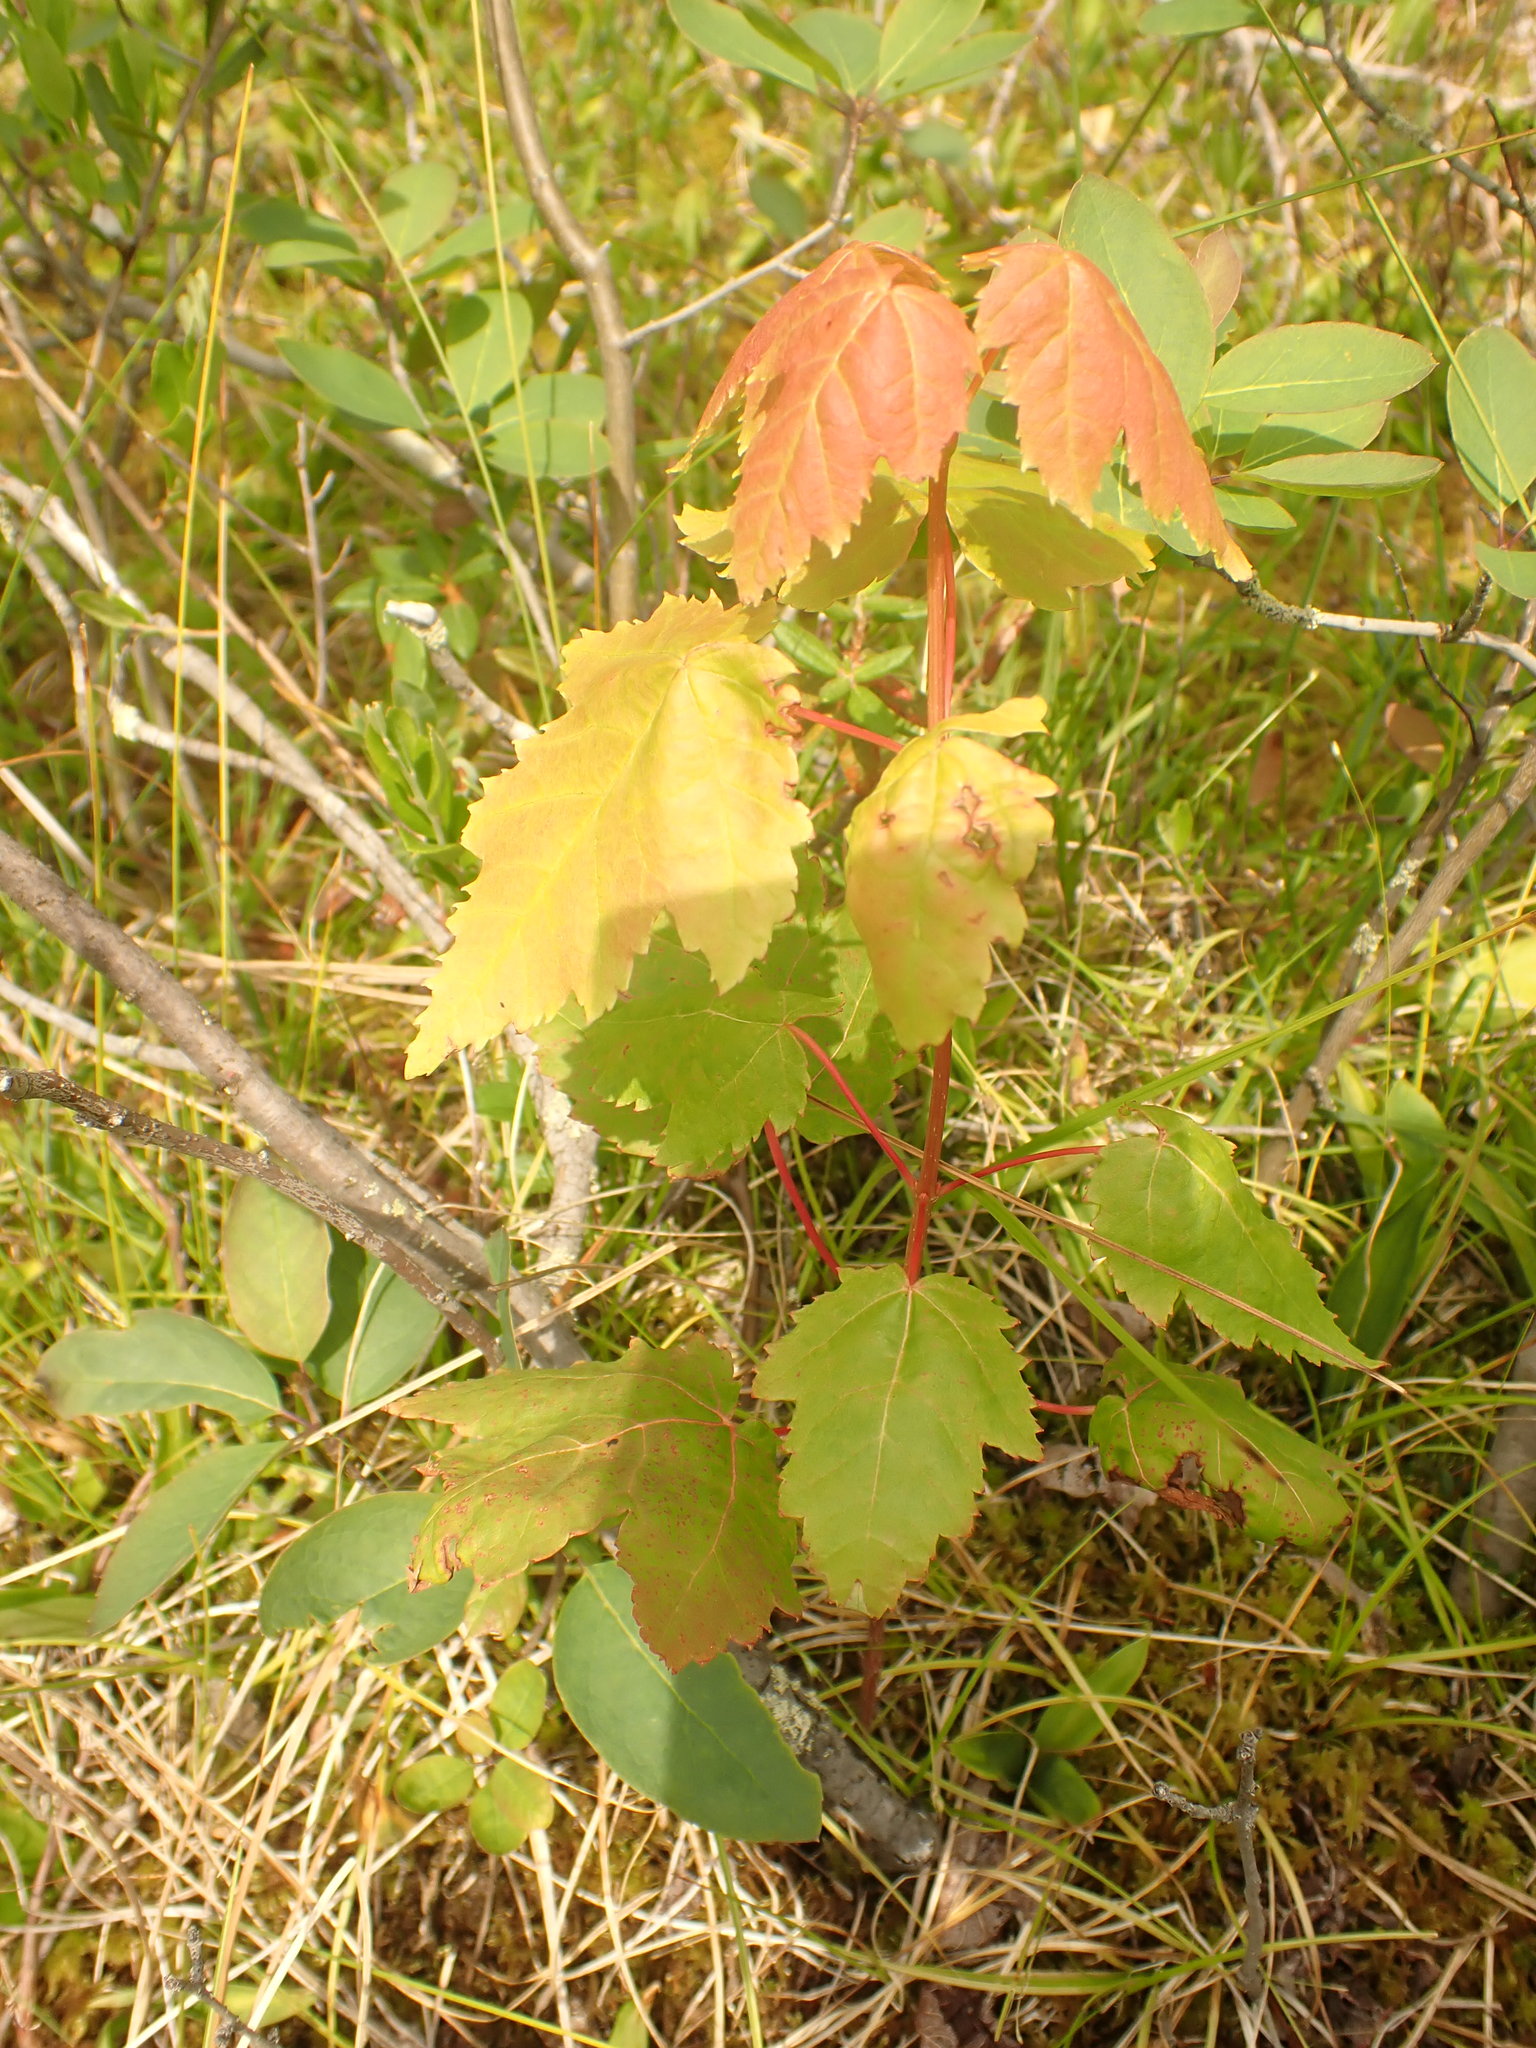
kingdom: Plantae
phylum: Tracheophyta
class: Magnoliopsida
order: Sapindales
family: Sapindaceae
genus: Acer
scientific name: Acer rubrum
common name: Red maple
